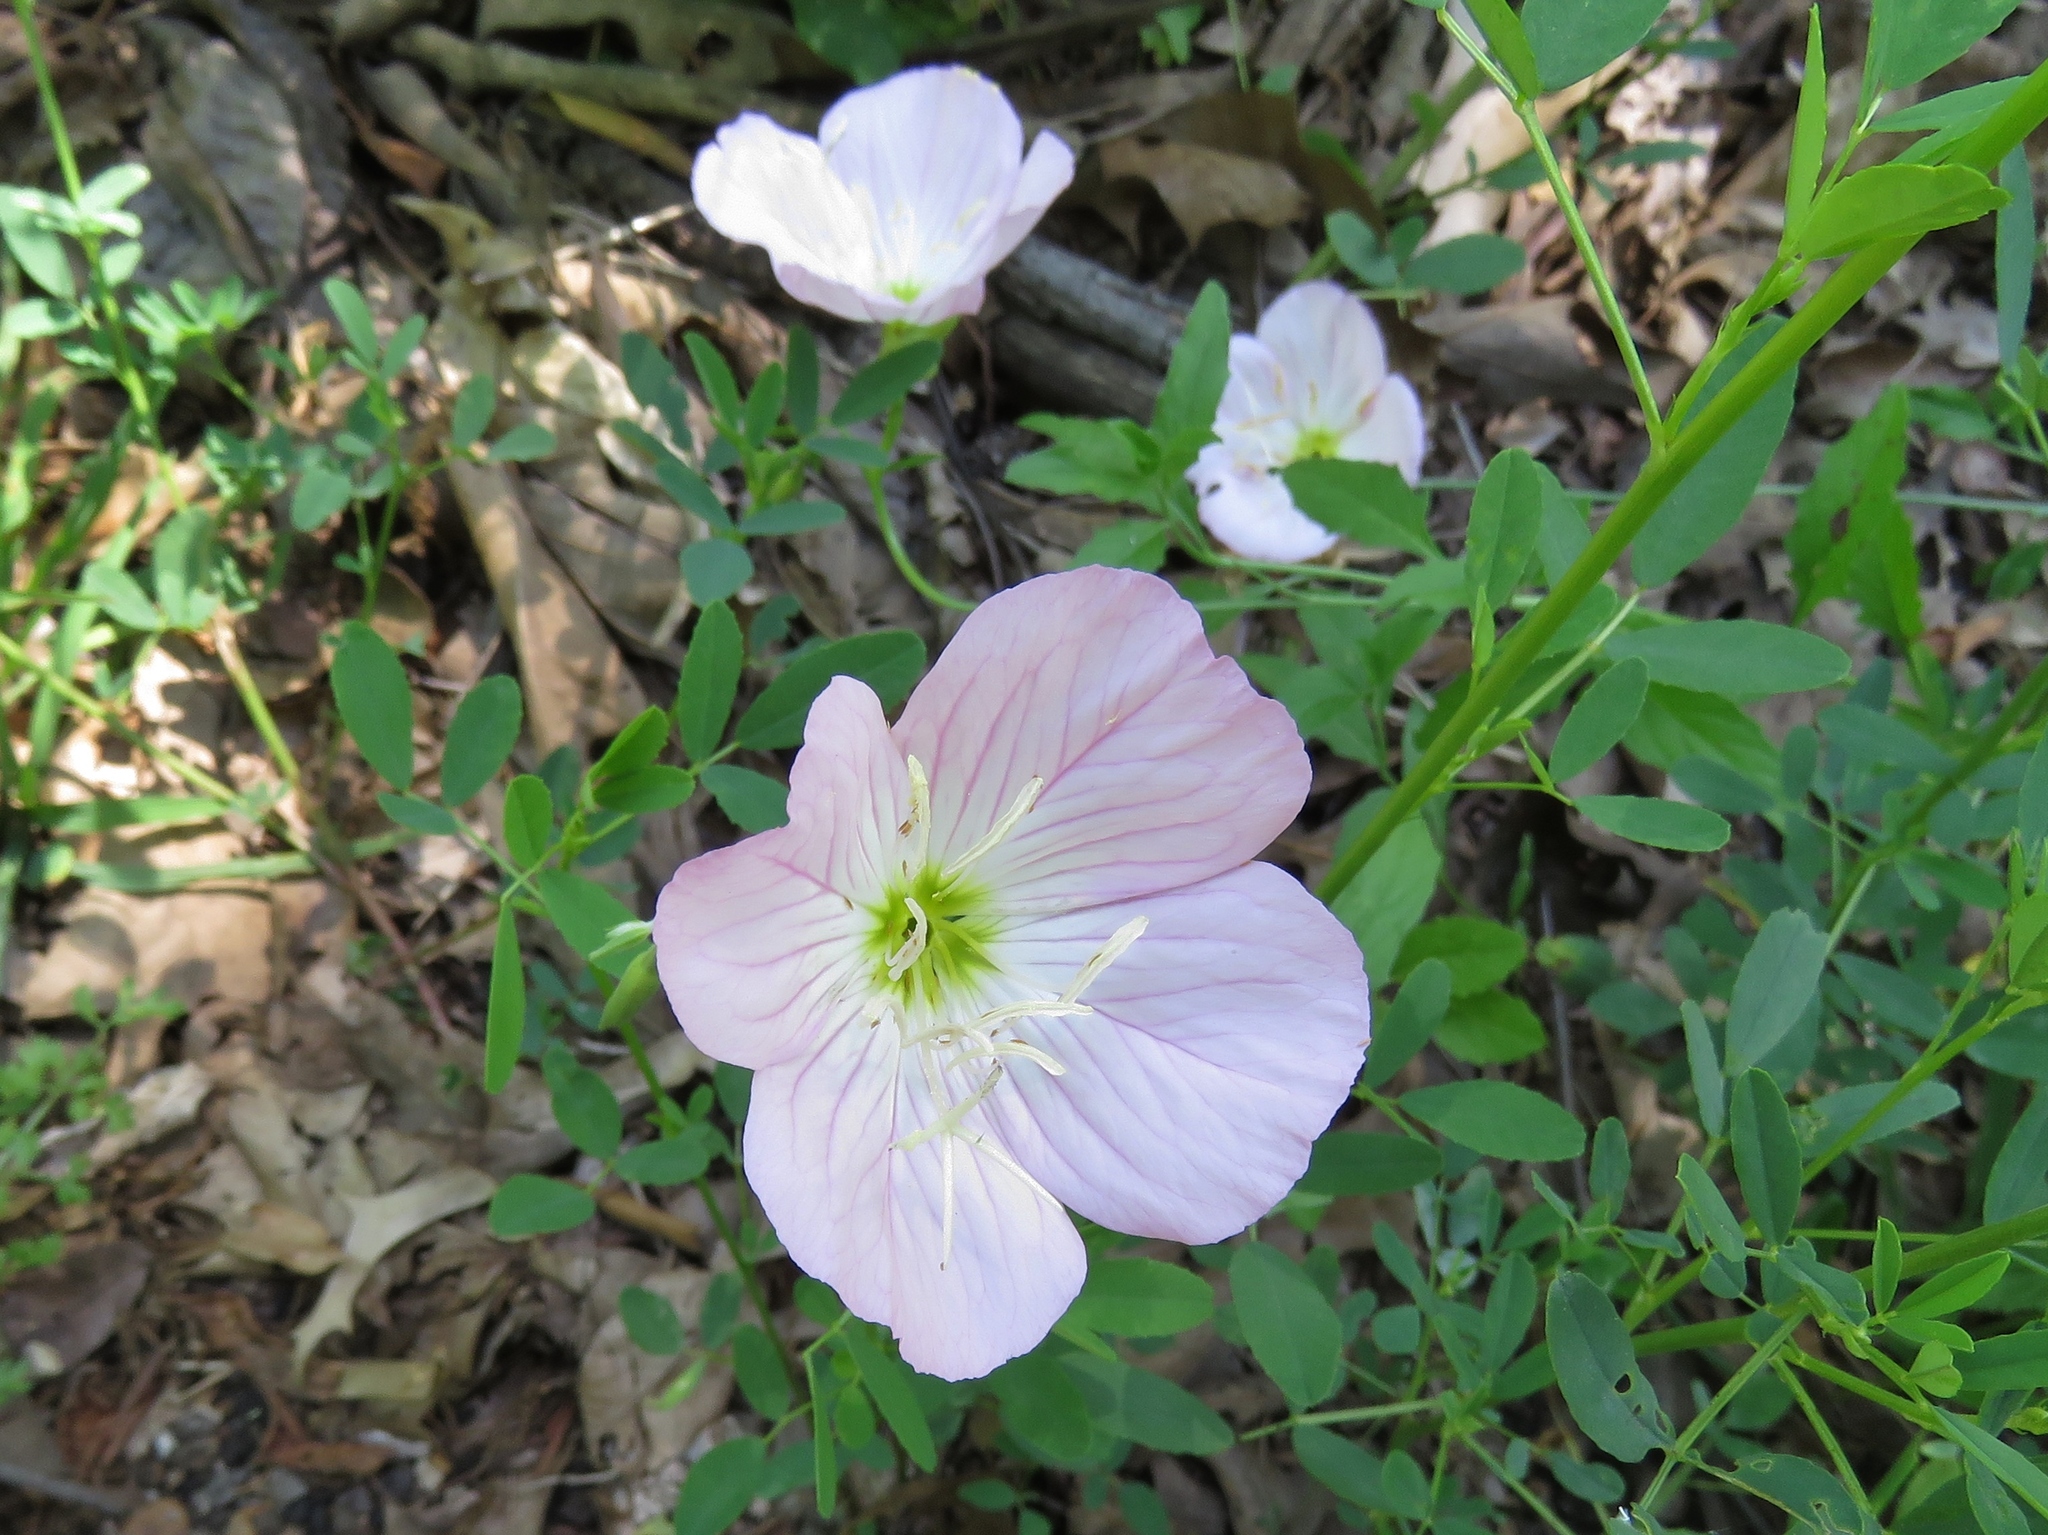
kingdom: Plantae
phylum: Tracheophyta
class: Magnoliopsida
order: Myrtales
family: Onagraceae
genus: Oenothera
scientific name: Oenothera speciosa
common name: White evening-primrose
